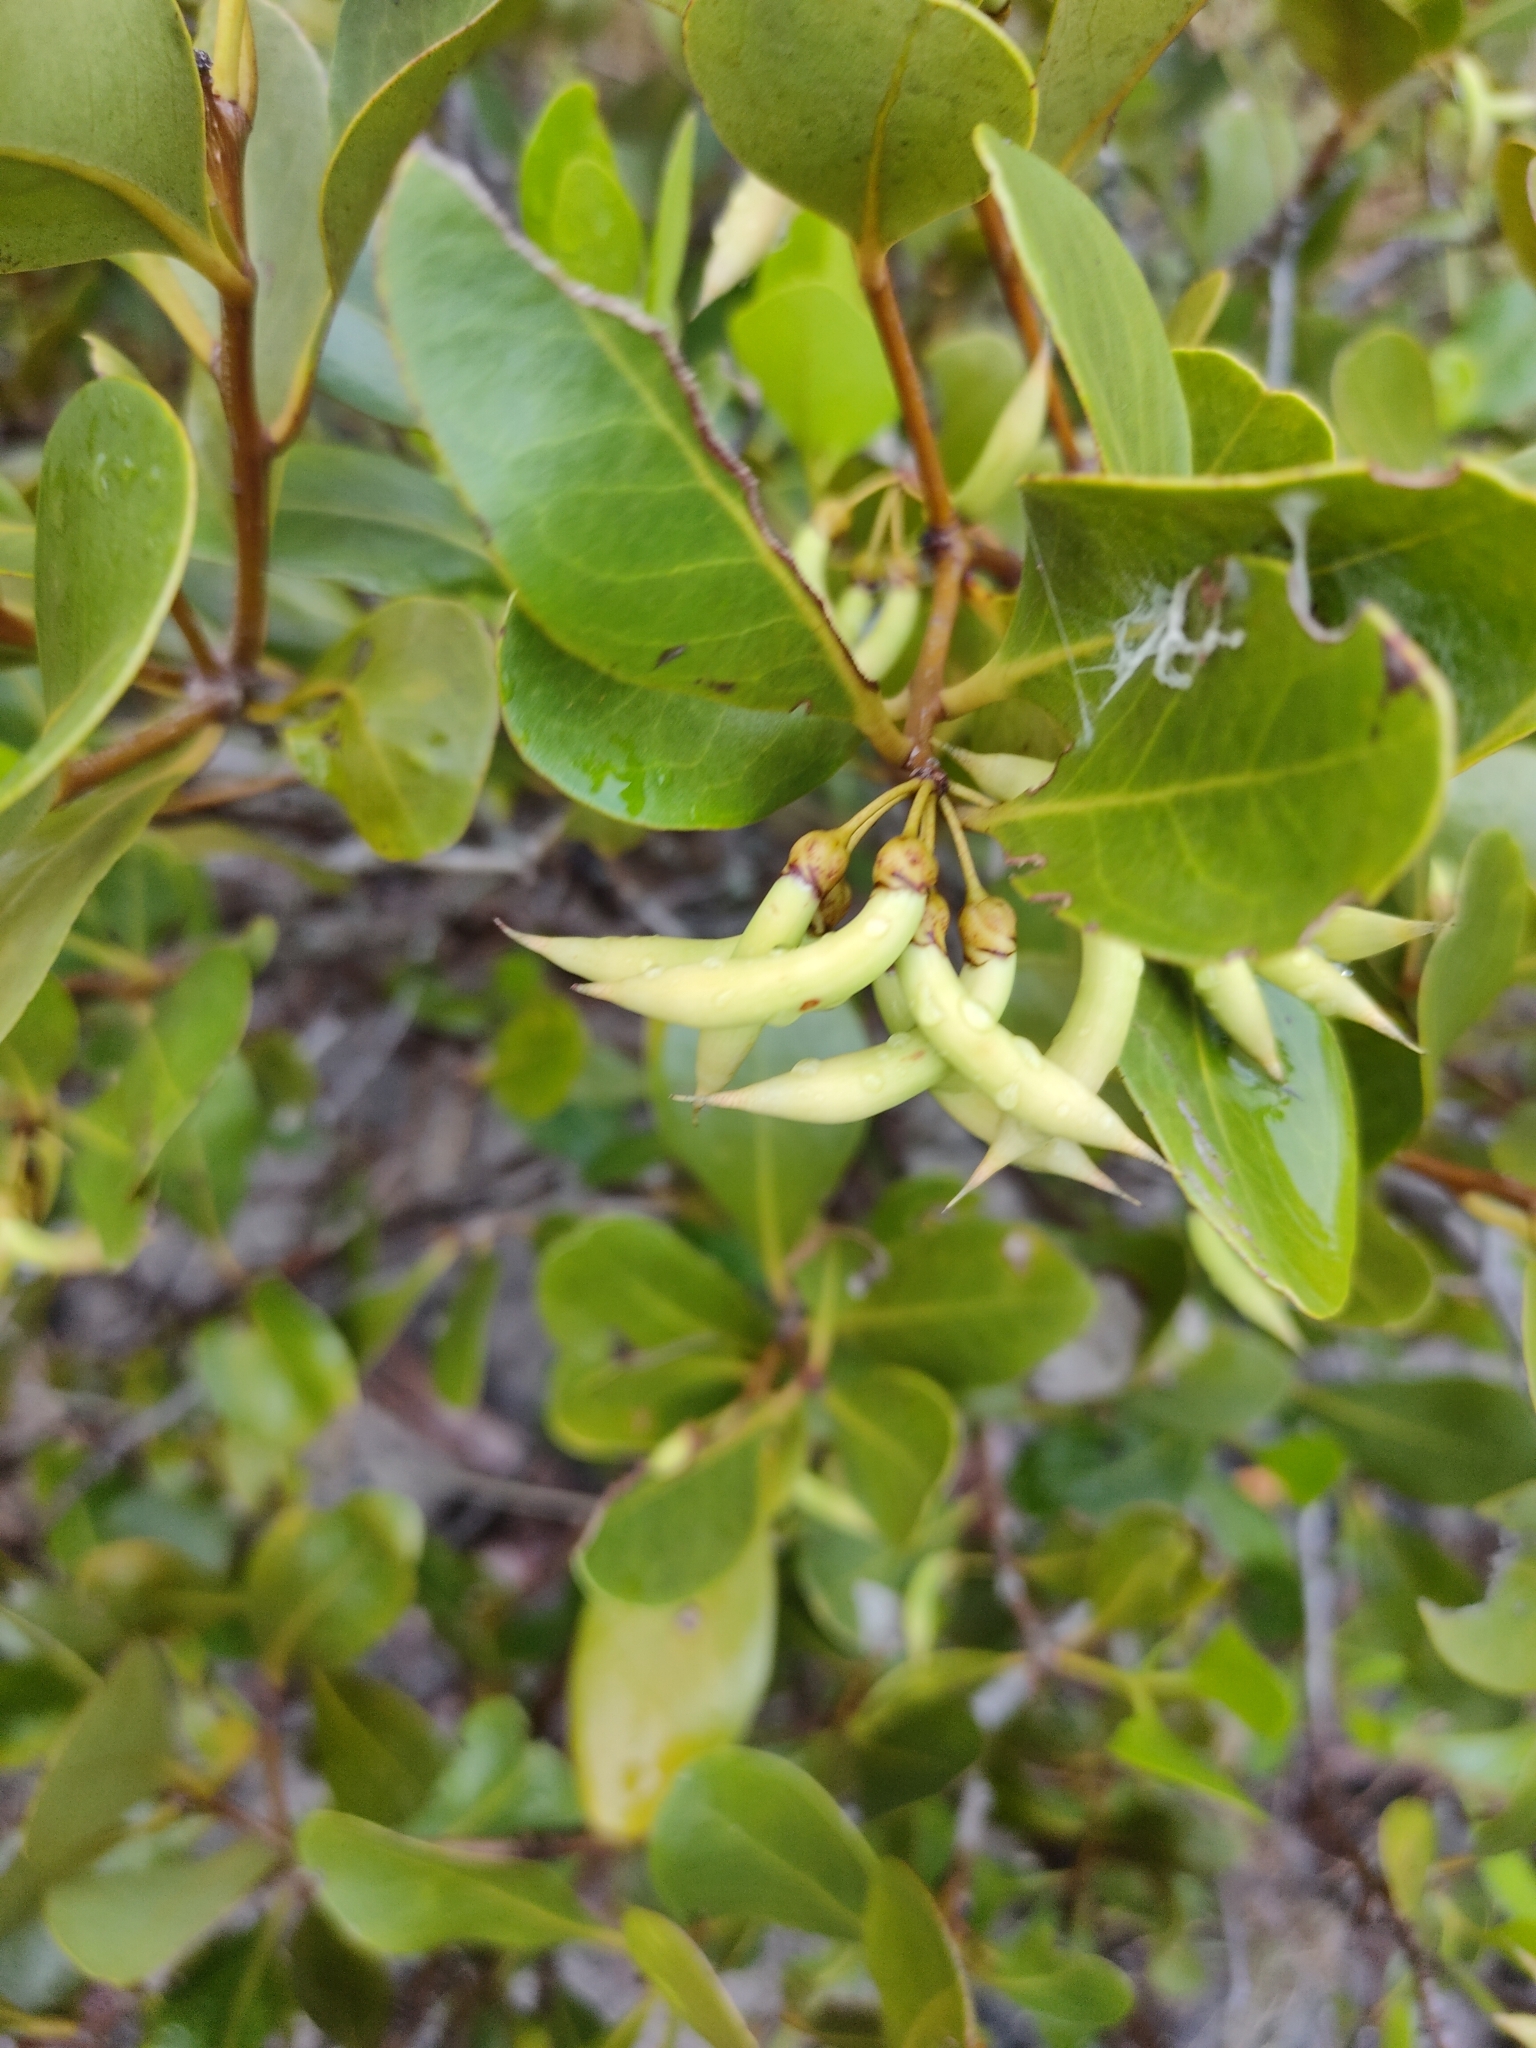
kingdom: Plantae
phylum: Tracheophyta
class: Magnoliopsida
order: Ericales
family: Primulaceae
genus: Aegiceras
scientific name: Aegiceras corniculatum
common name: River mangrove
